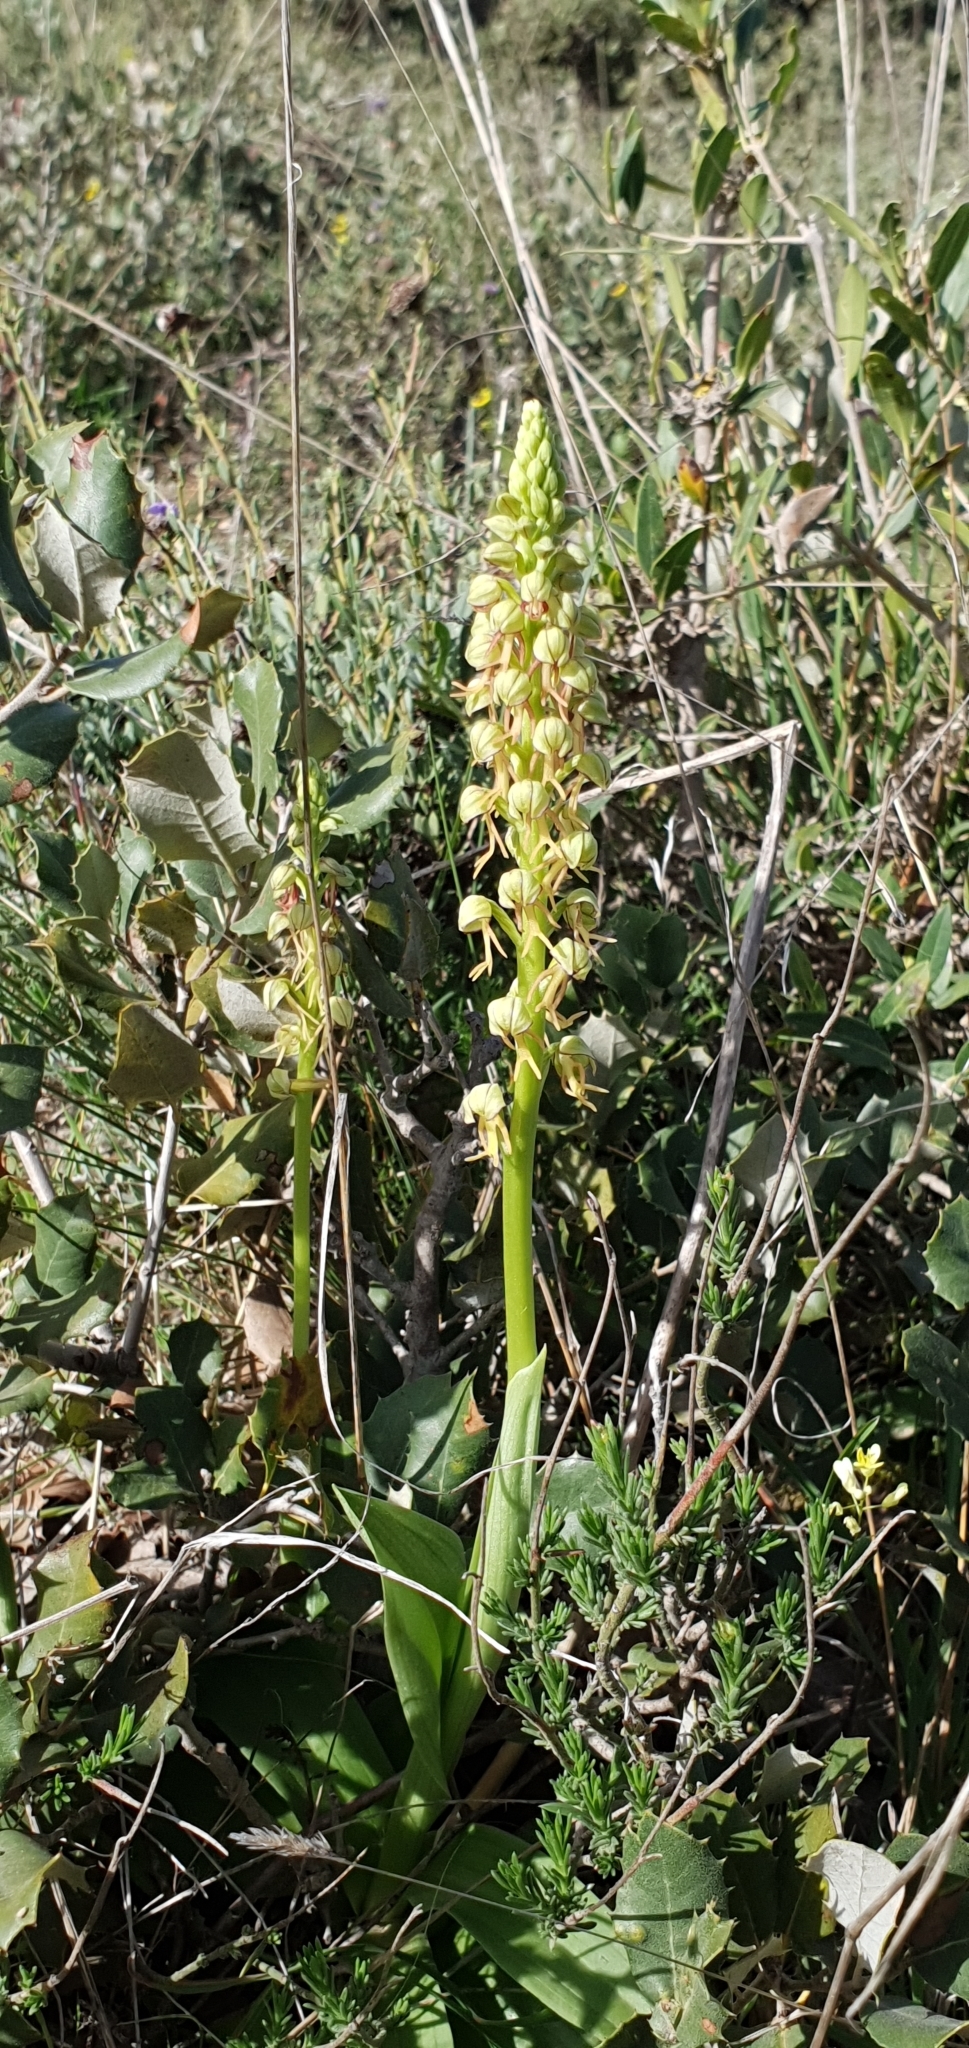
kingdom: Plantae
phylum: Tracheophyta
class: Liliopsida
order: Asparagales
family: Orchidaceae
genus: Orchis
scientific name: Orchis anthropophora
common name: Man orchid
